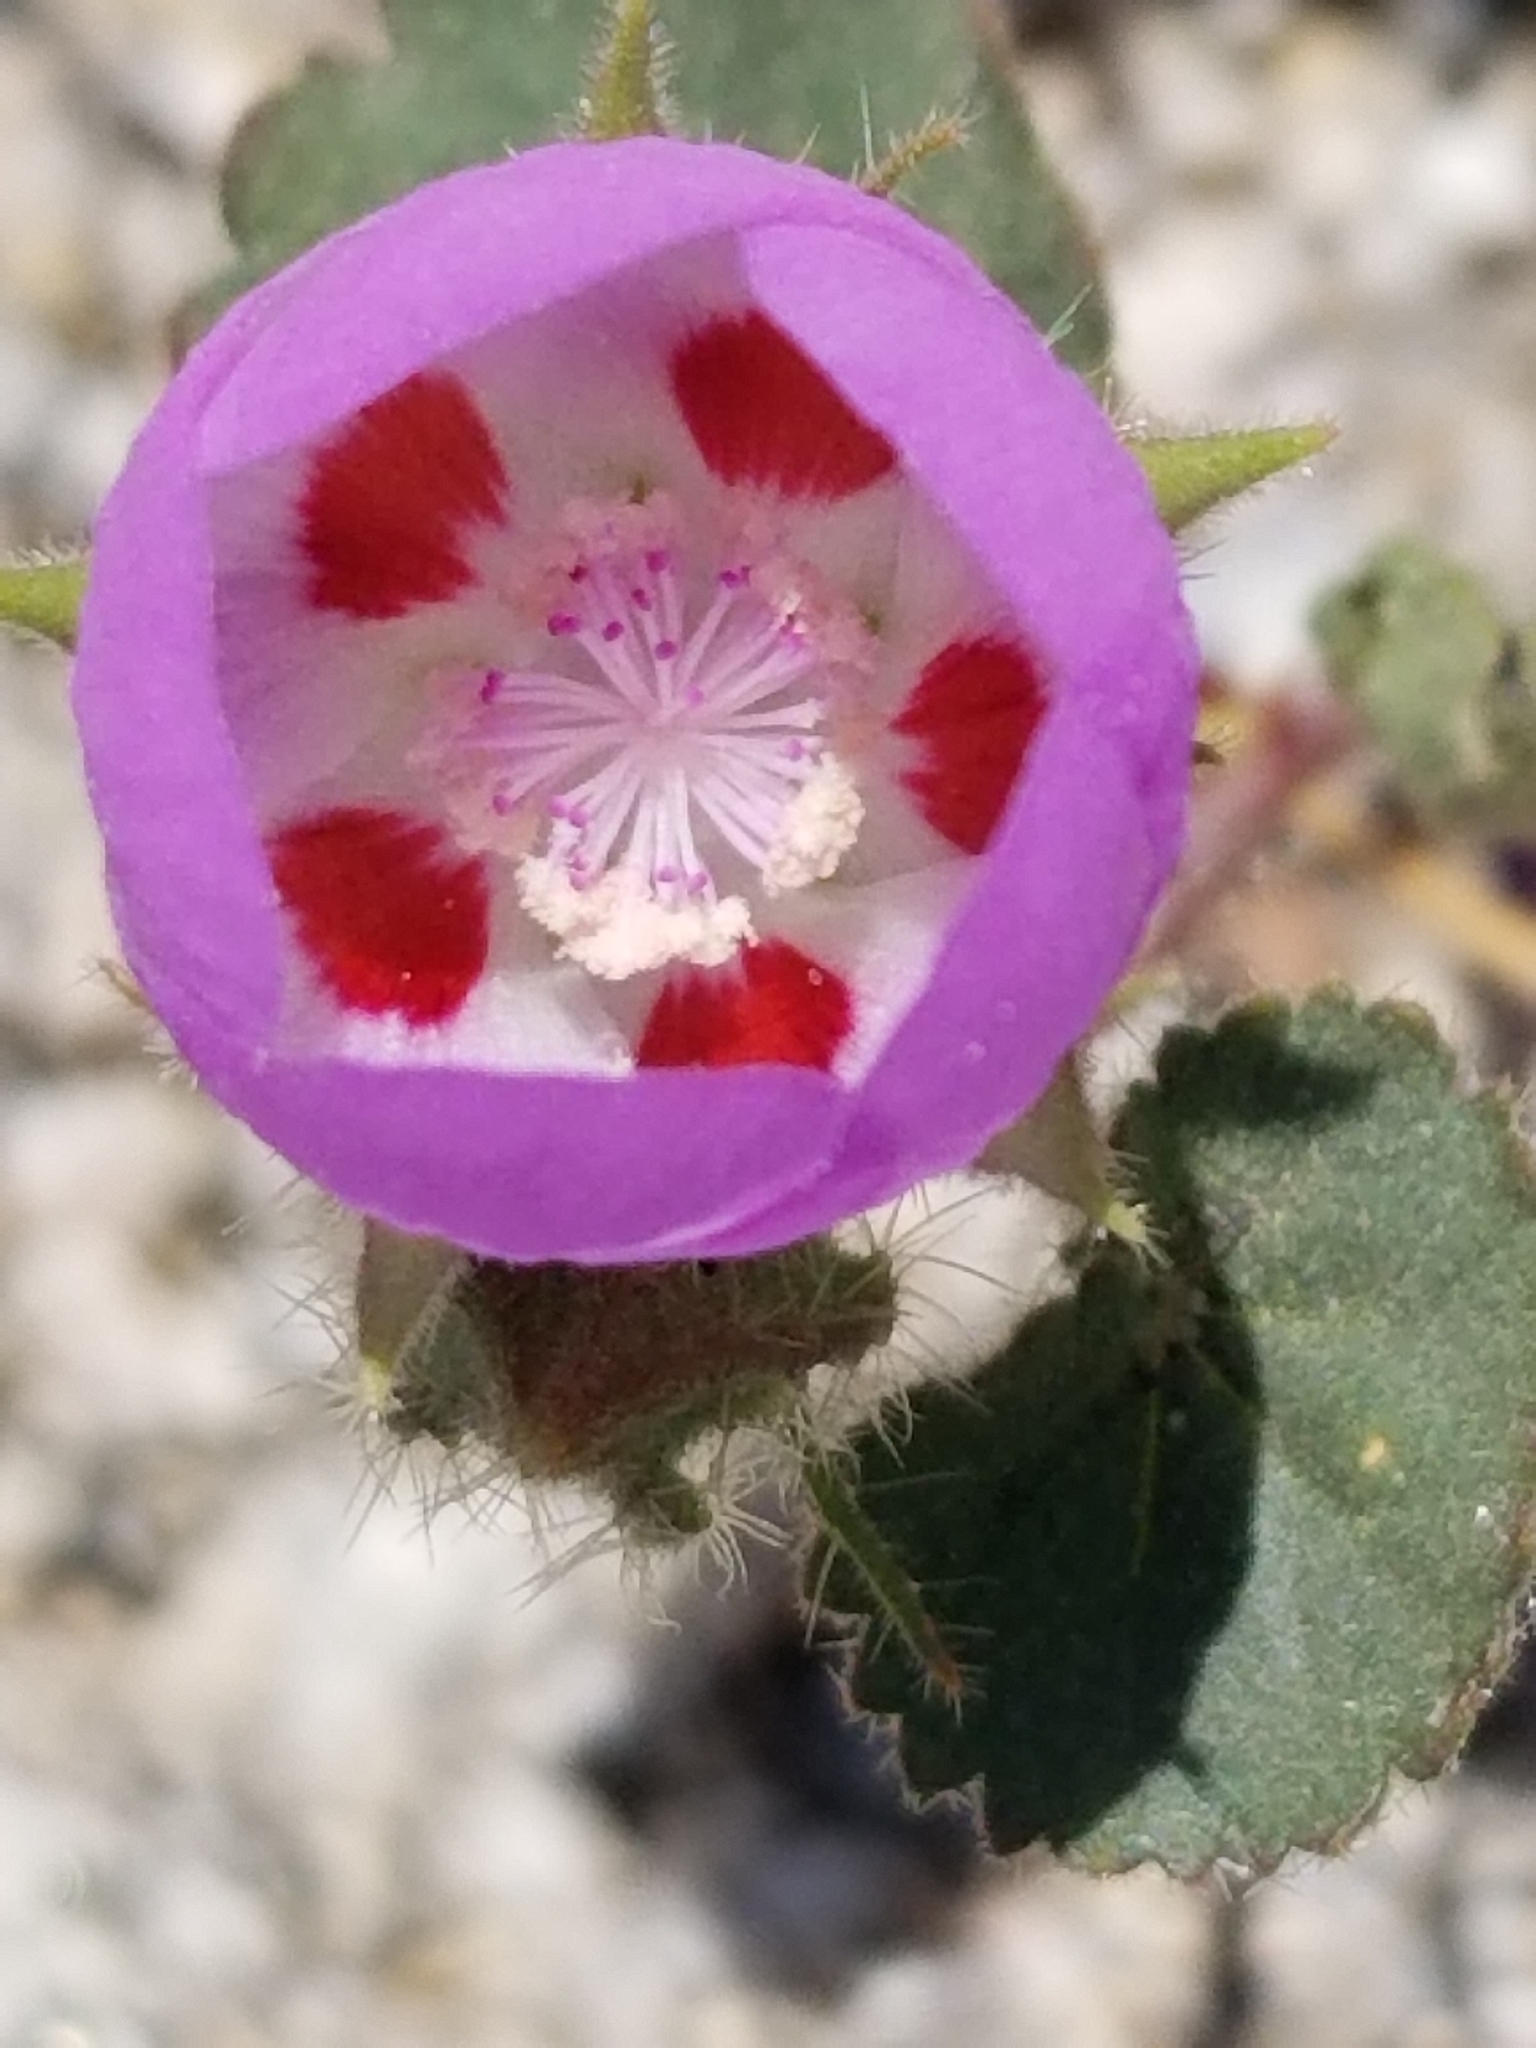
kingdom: Plantae
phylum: Tracheophyta
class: Magnoliopsida
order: Malvales
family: Malvaceae
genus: Eremalche
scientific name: Eremalche rotundifolia
